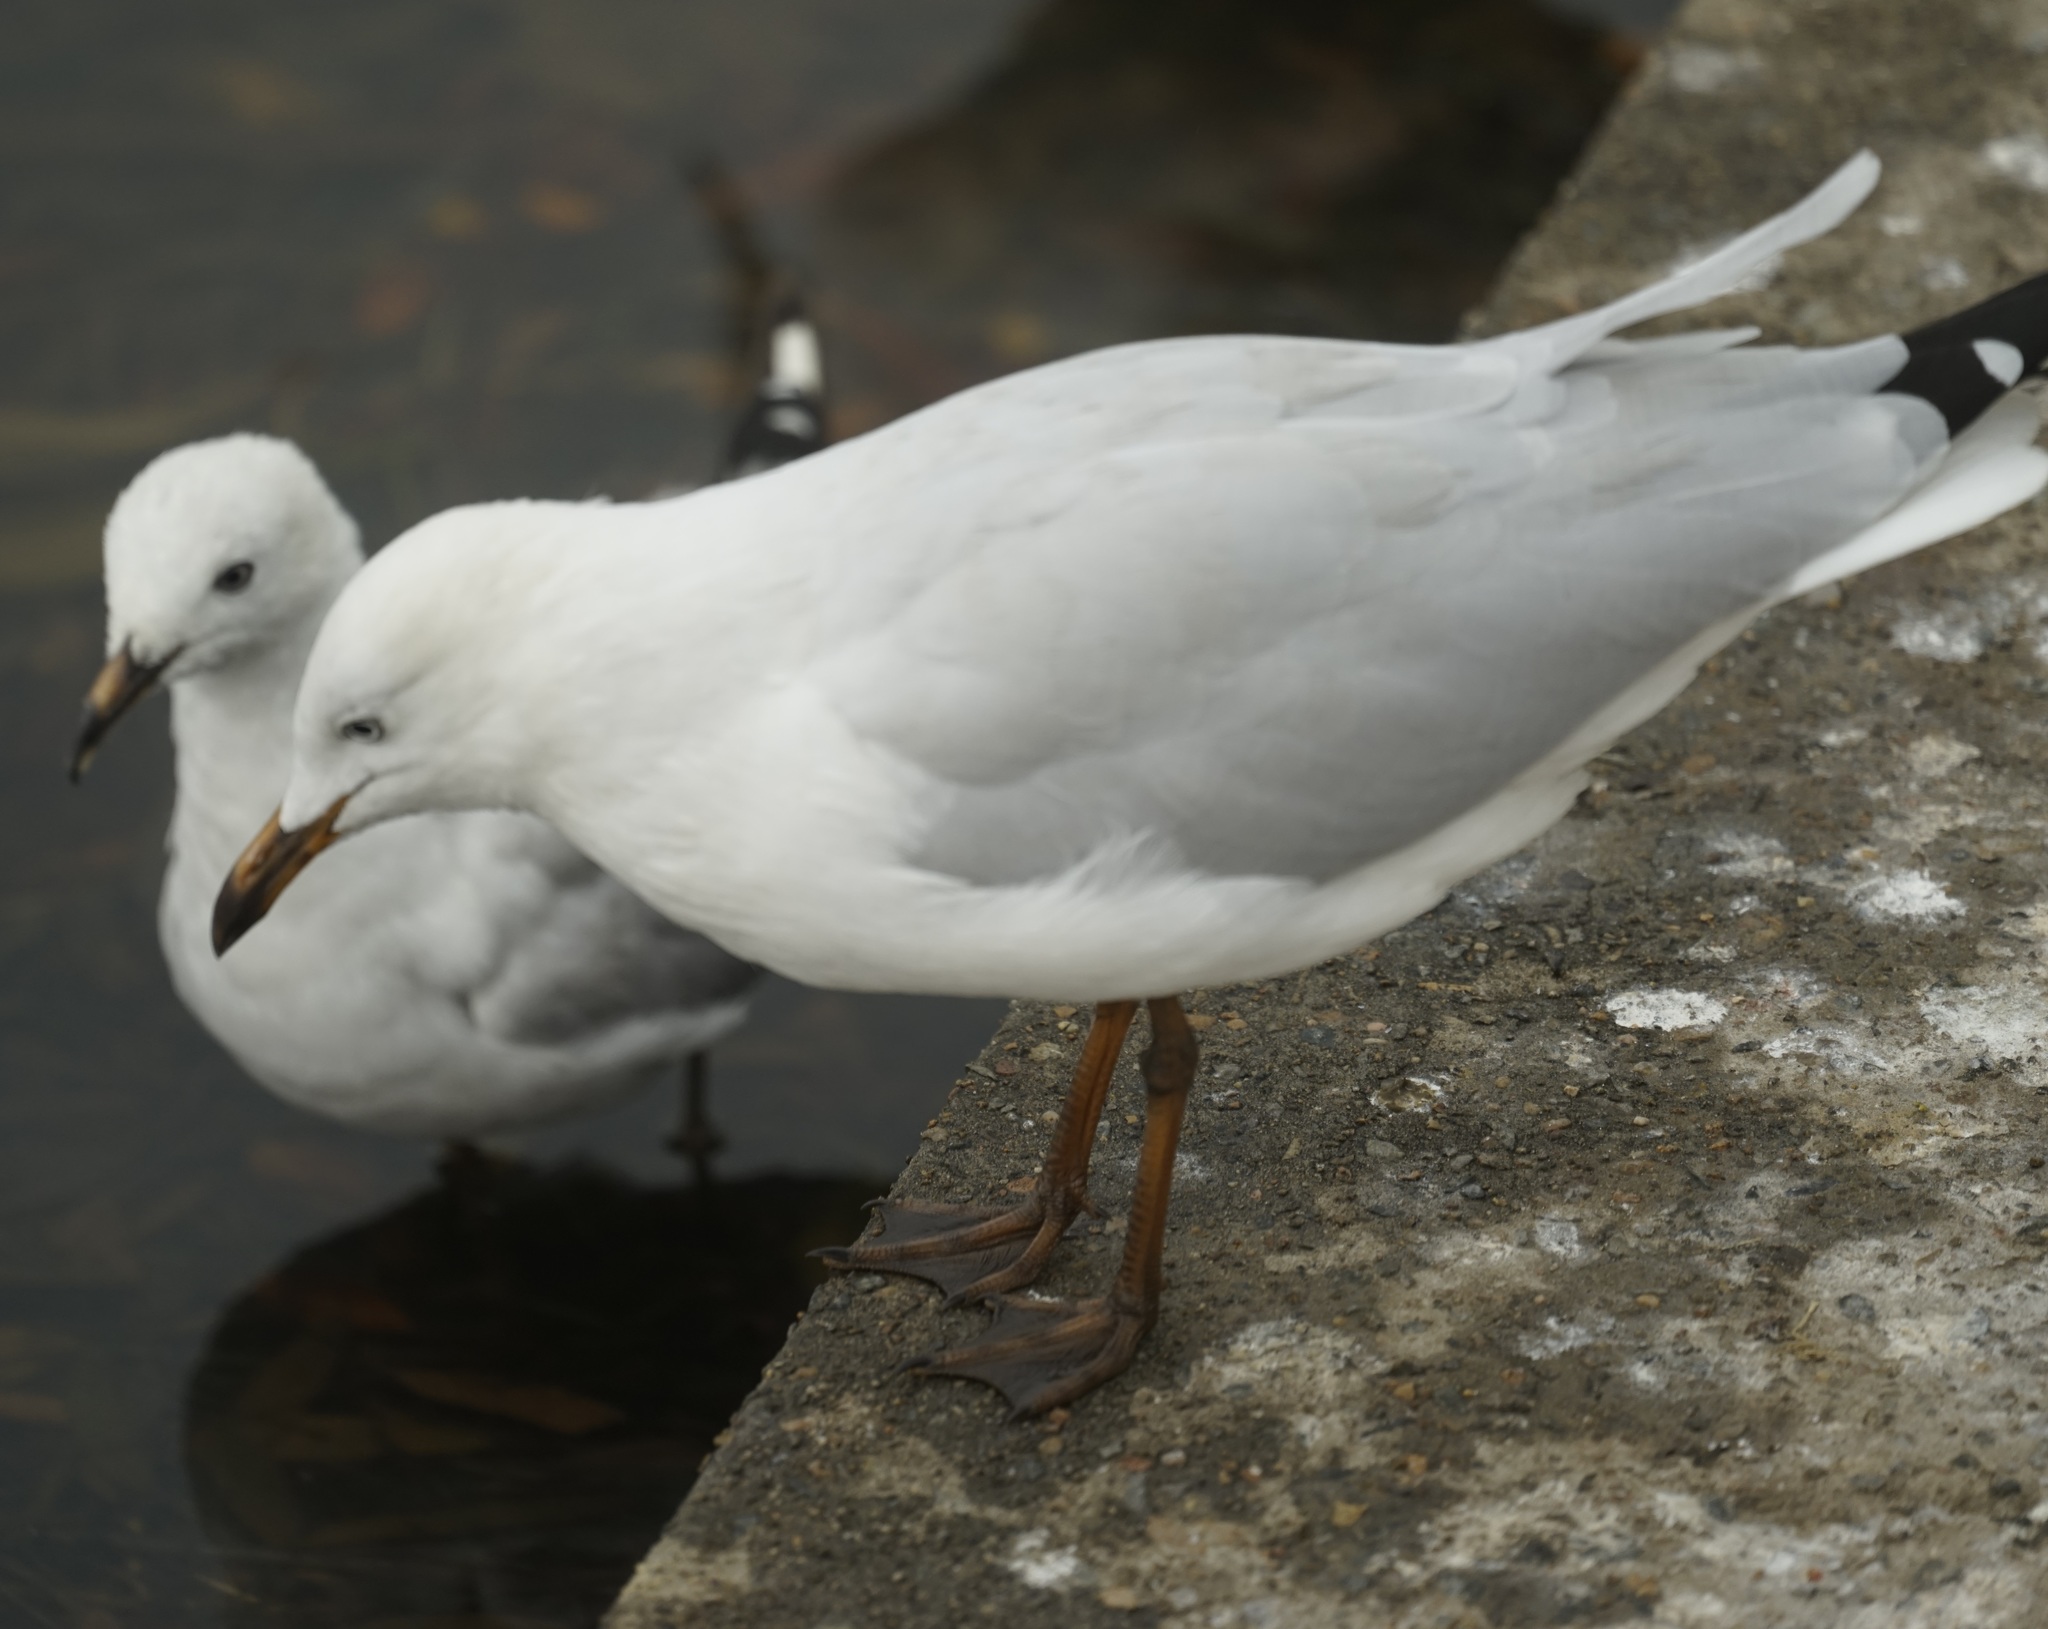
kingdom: Animalia
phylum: Chordata
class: Aves
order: Charadriiformes
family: Laridae
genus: Chroicocephalus
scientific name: Chroicocephalus novaehollandiae
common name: Silver gull
